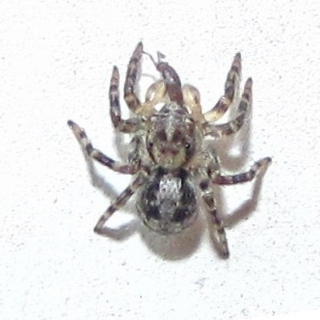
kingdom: Animalia
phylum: Arthropoda
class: Arachnida
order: Araneae
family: Salticidae
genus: Naphrys
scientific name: Naphrys pulex
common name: Flea jumping spider
